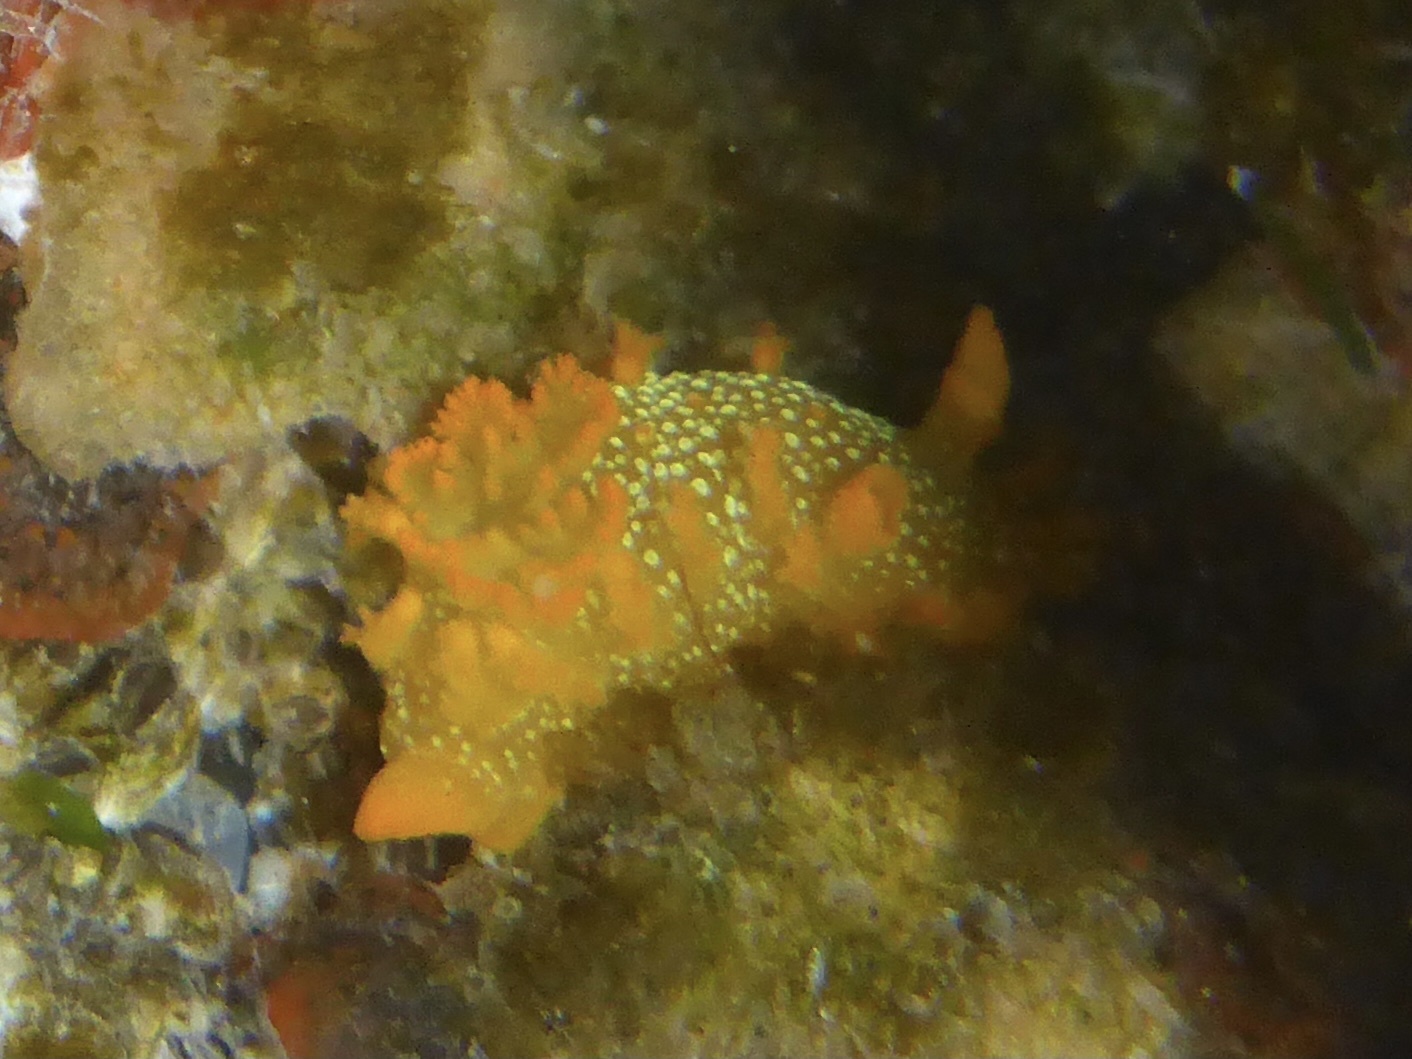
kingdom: Animalia
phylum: Mollusca
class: Gastropoda
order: Nudibranchia
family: Polyceridae
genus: Triopha
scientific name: Triopha maculata
